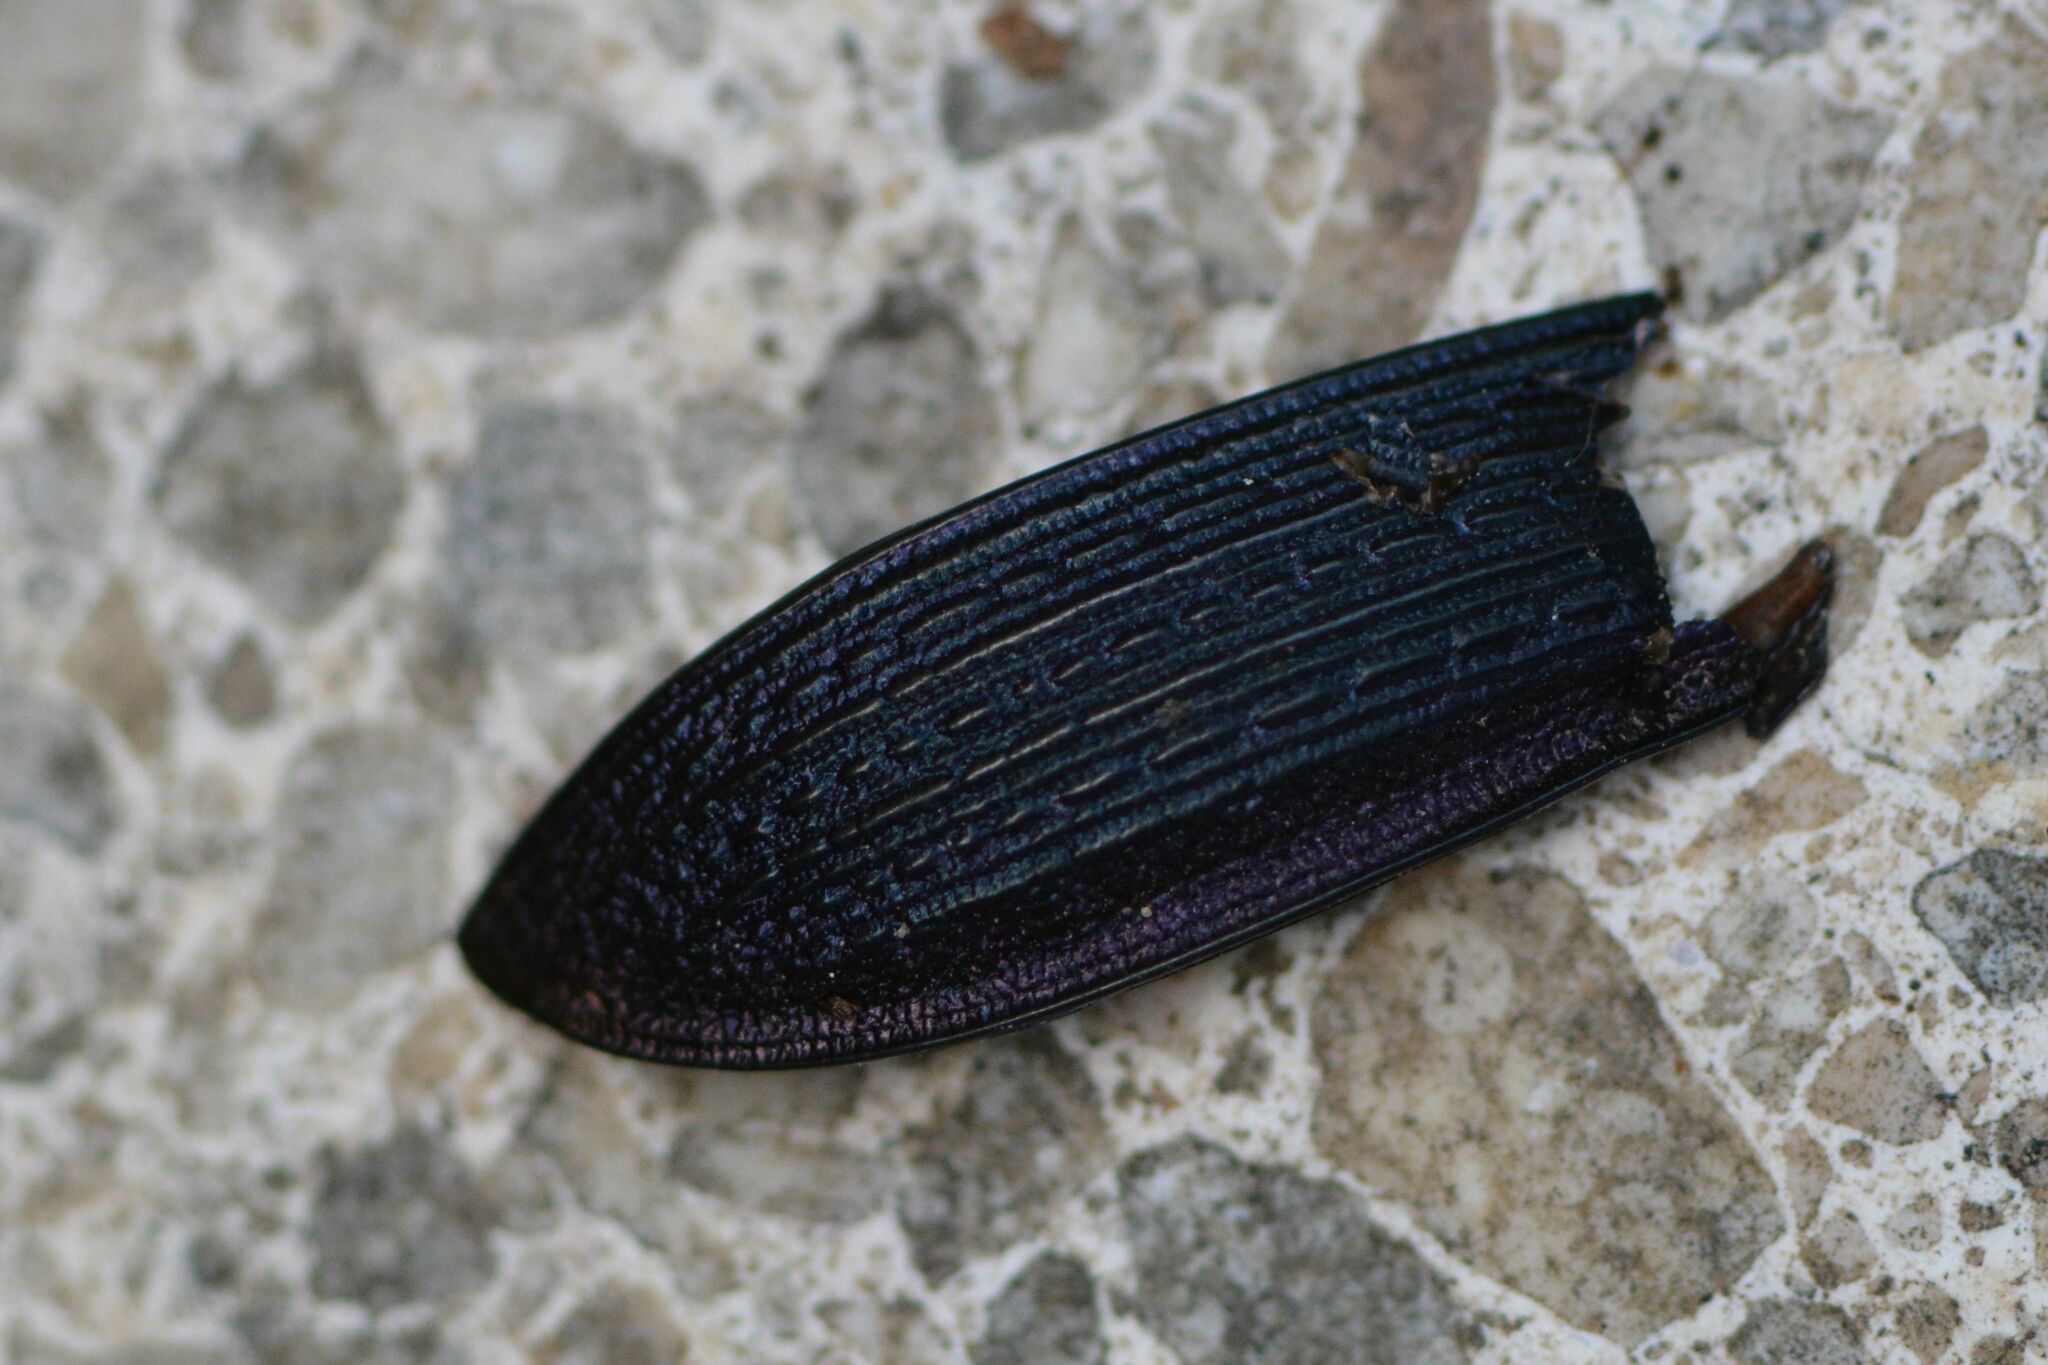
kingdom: Animalia
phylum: Arthropoda
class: Insecta
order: Coleoptera
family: Carabidae
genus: Carabus
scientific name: Carabus monilis
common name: Necklace ground beetle
